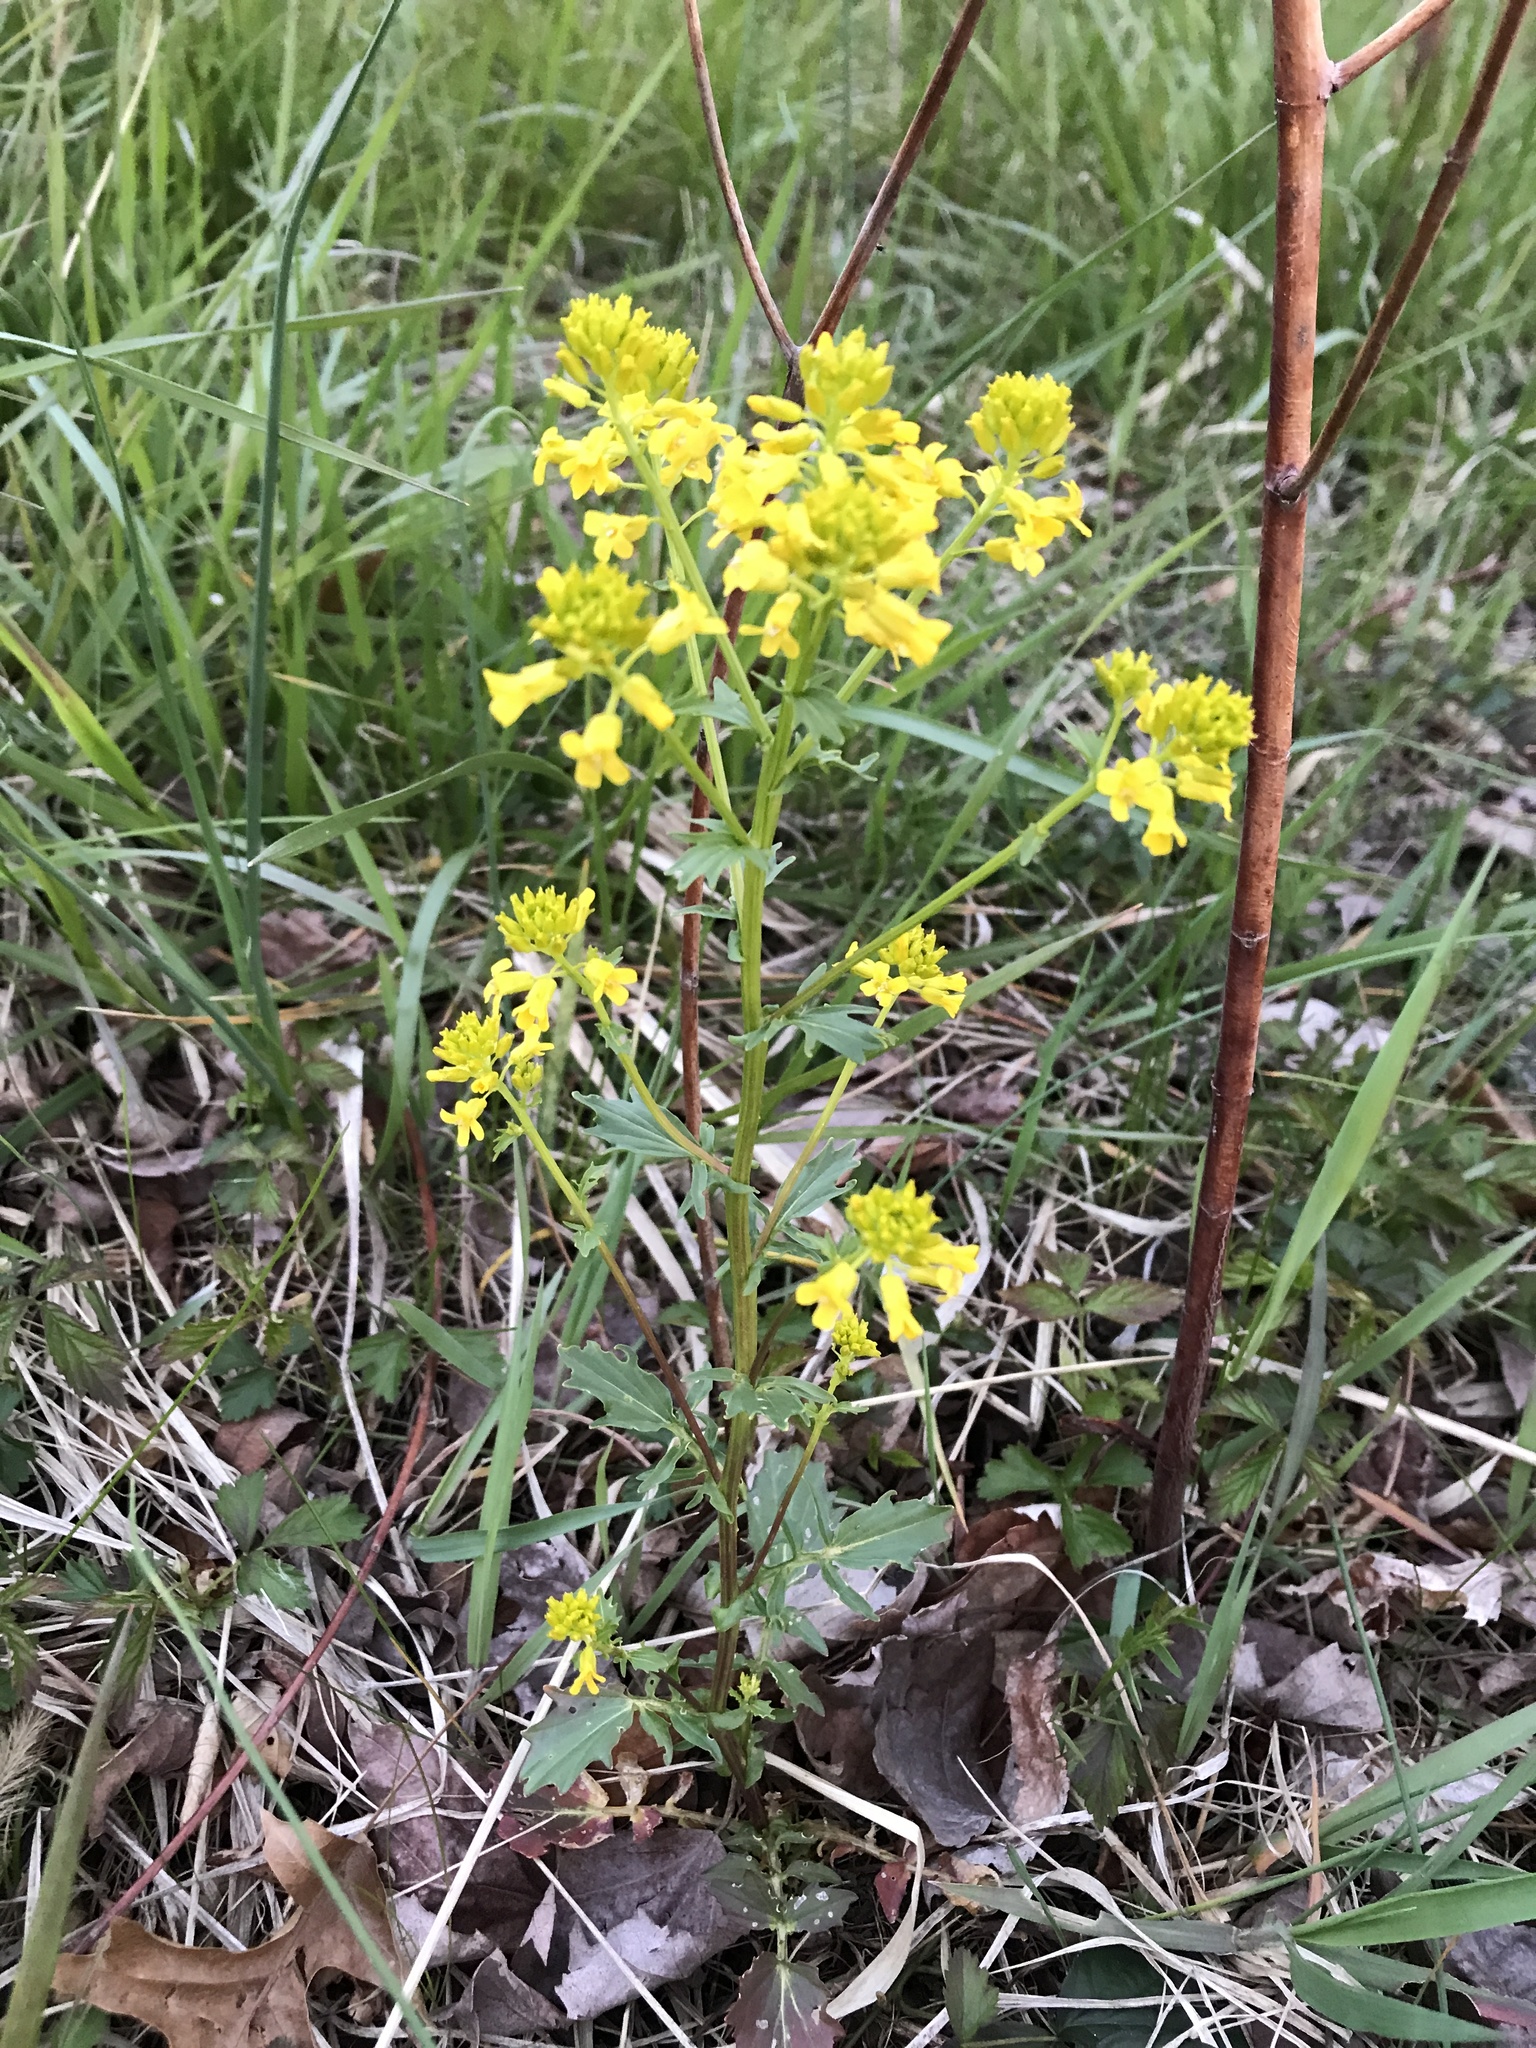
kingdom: Plantae
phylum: Tracheophyta
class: Magnoliopsida
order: Brassicales
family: Brassicaceae
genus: Barbarea
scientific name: Barbarea vulgaris
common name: Cressy-greens
